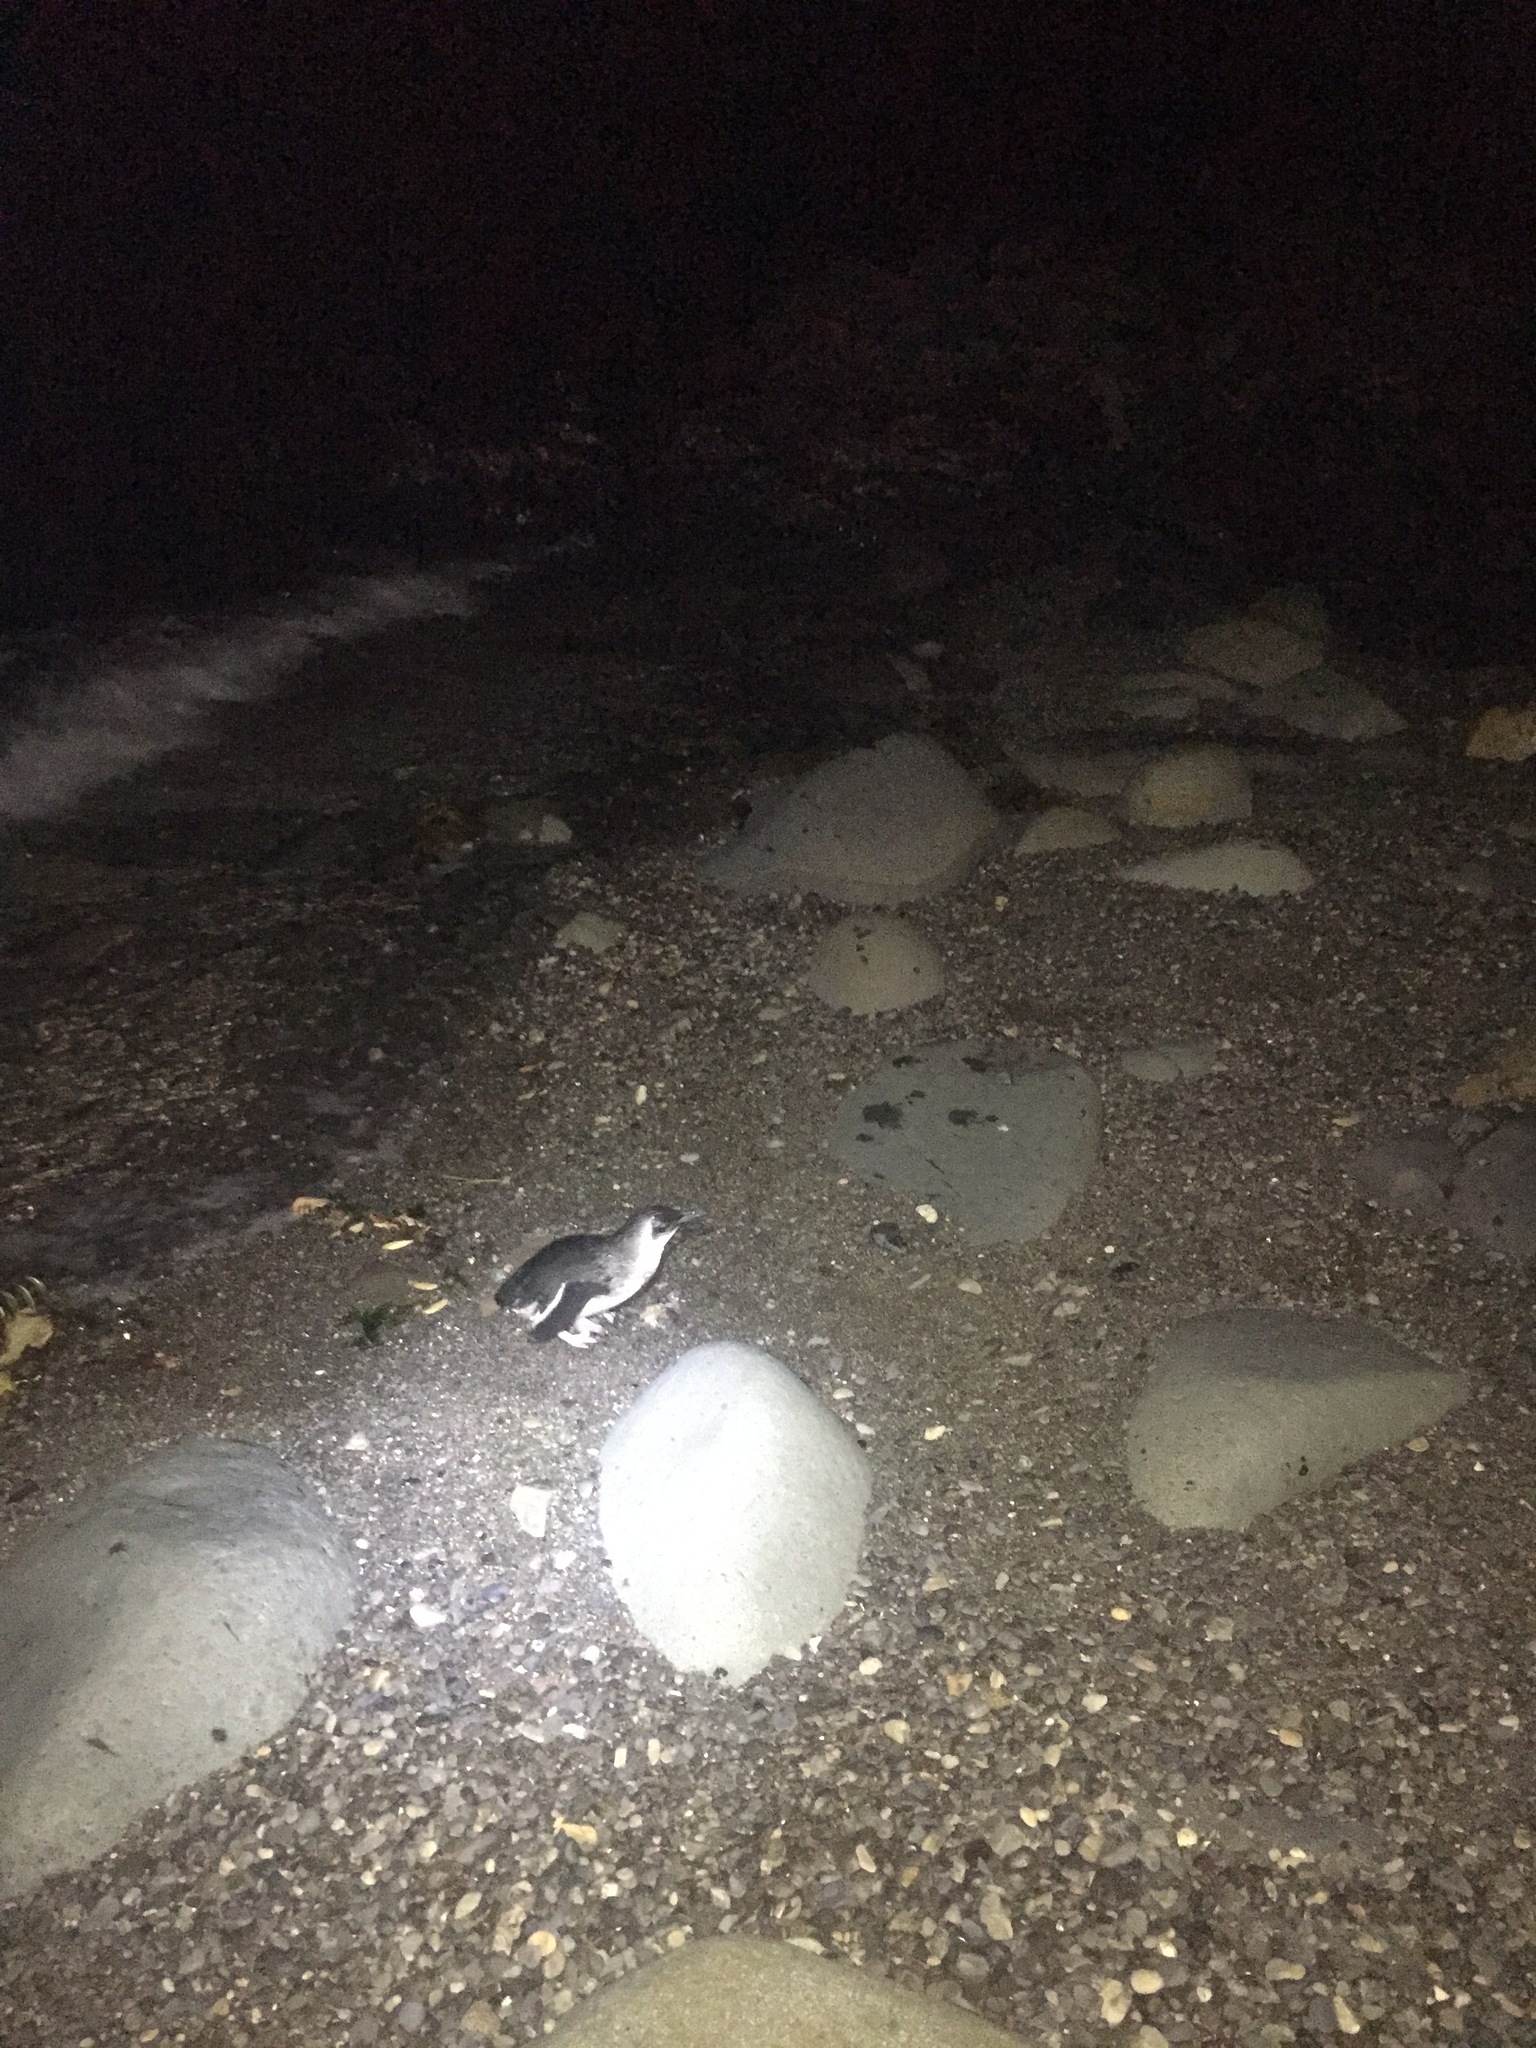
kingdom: Animalia
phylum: Chordata
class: Aves
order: Sphenisciformes
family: Spheniscidae
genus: Eudyptula
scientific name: Eudyptula minor
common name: Little penguin
